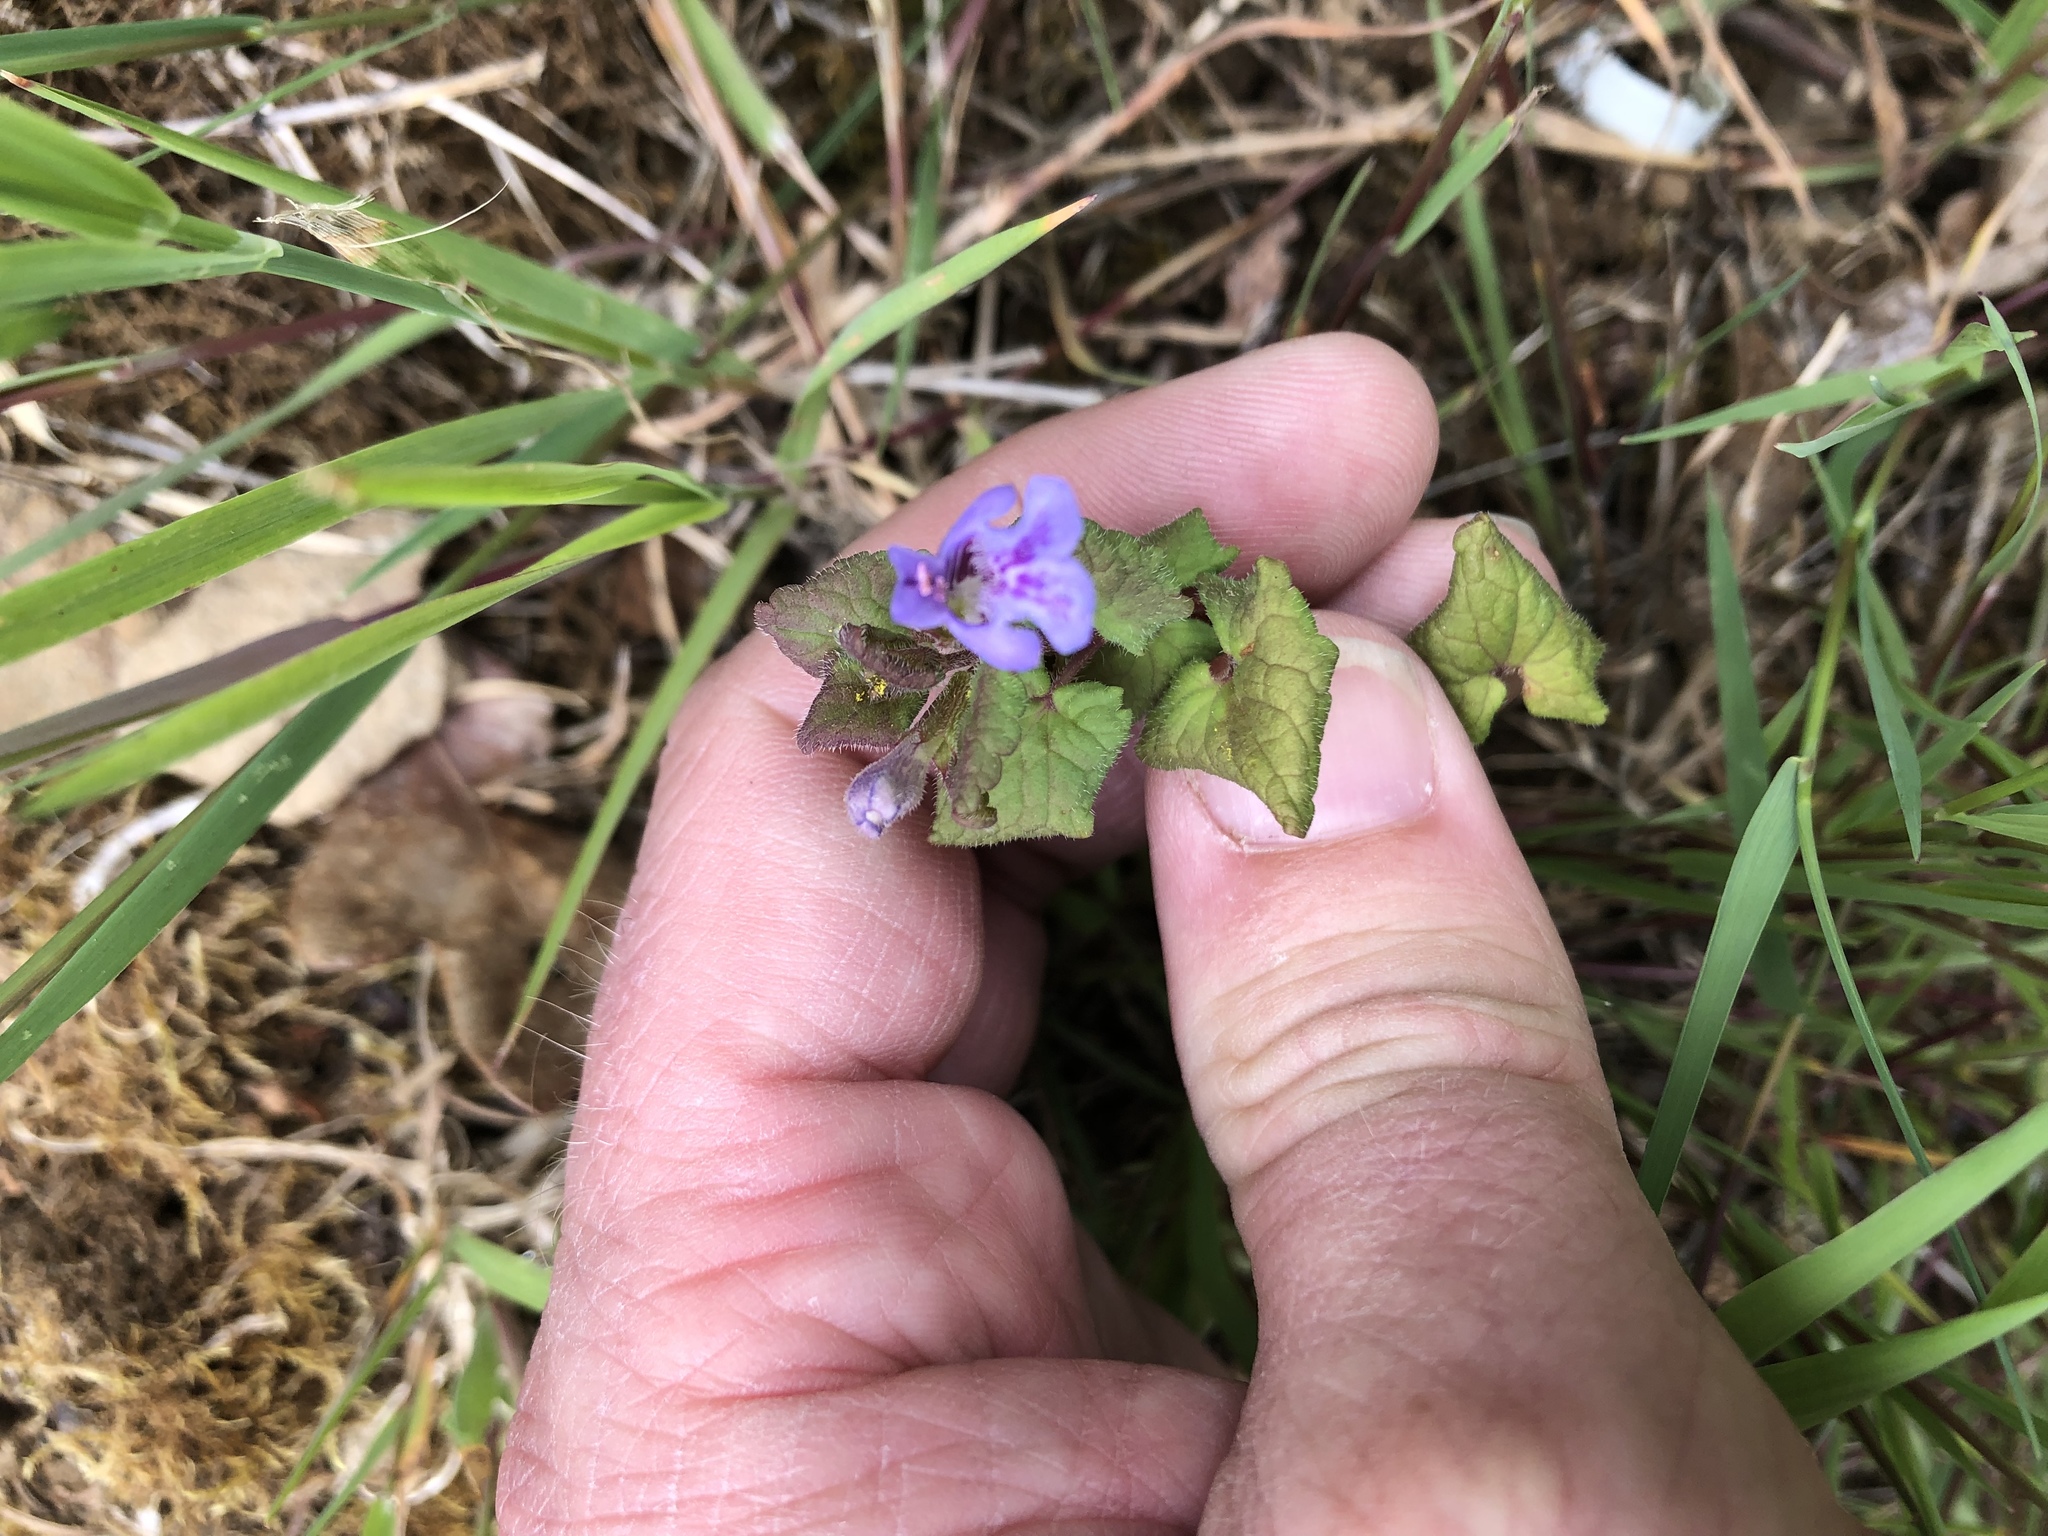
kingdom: Plantae
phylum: Tracheophyta
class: Magnoliopsida
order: Lamiales
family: Lamiaceae
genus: Glechoma
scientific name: Glechoma hederacea
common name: Ground ivy
